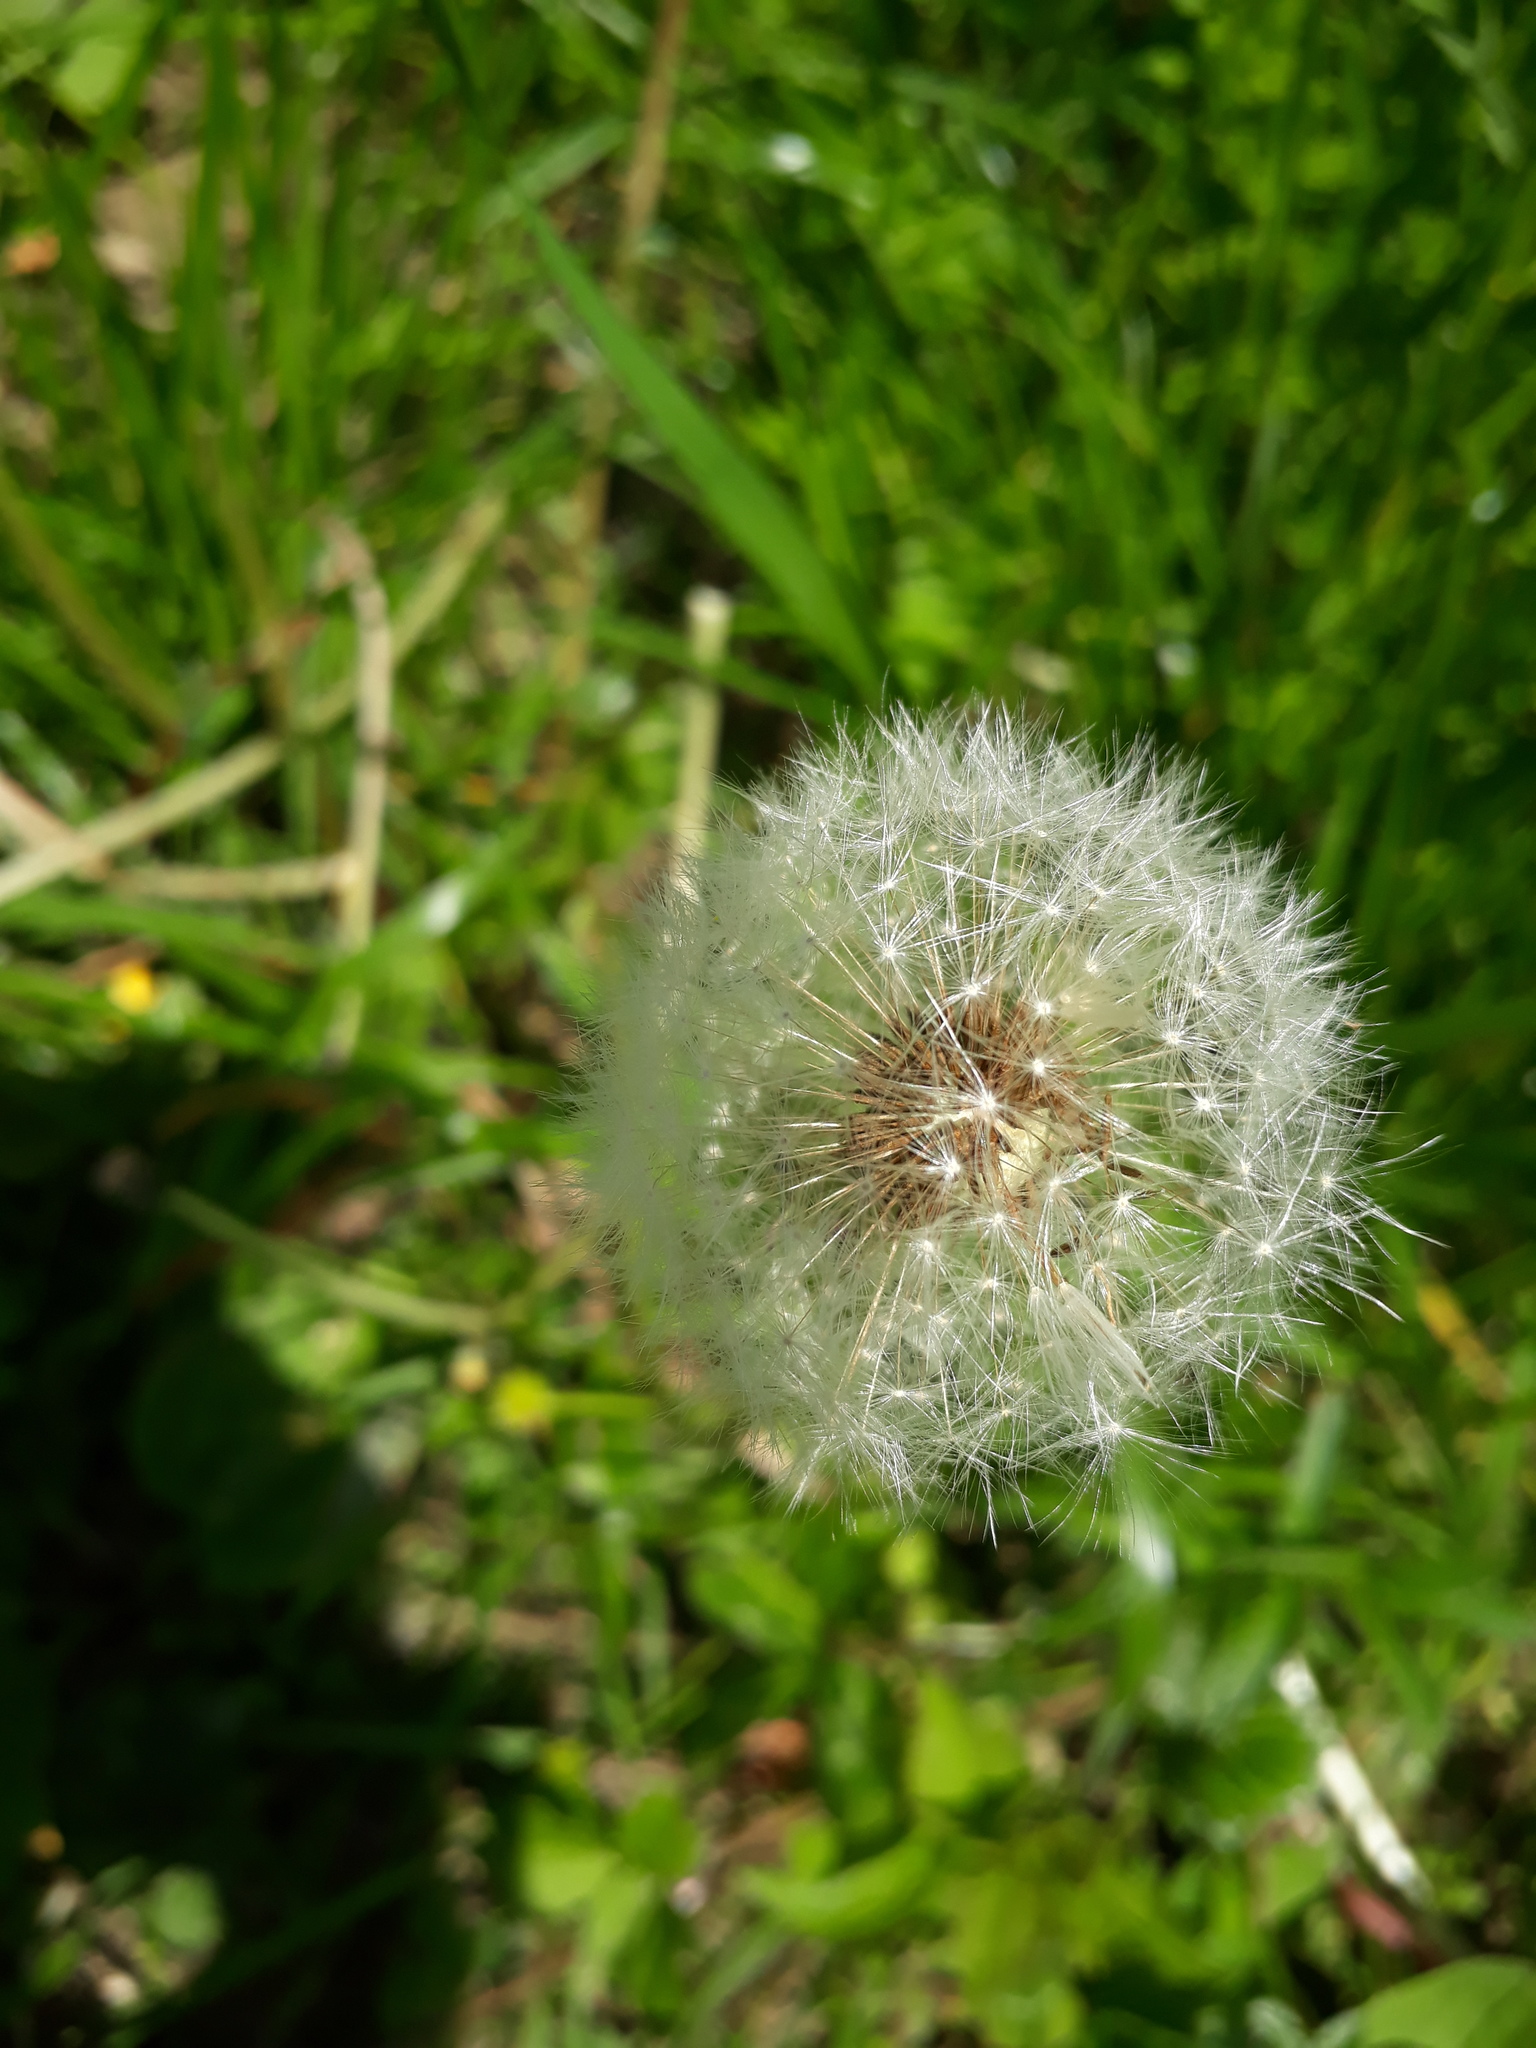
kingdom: Plantae
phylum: Tracheophyta
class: Magnoliopsida
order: Asterales
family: Asteraceae
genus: Taraxacum
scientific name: Taraxacum officinale
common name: Common dandelion
